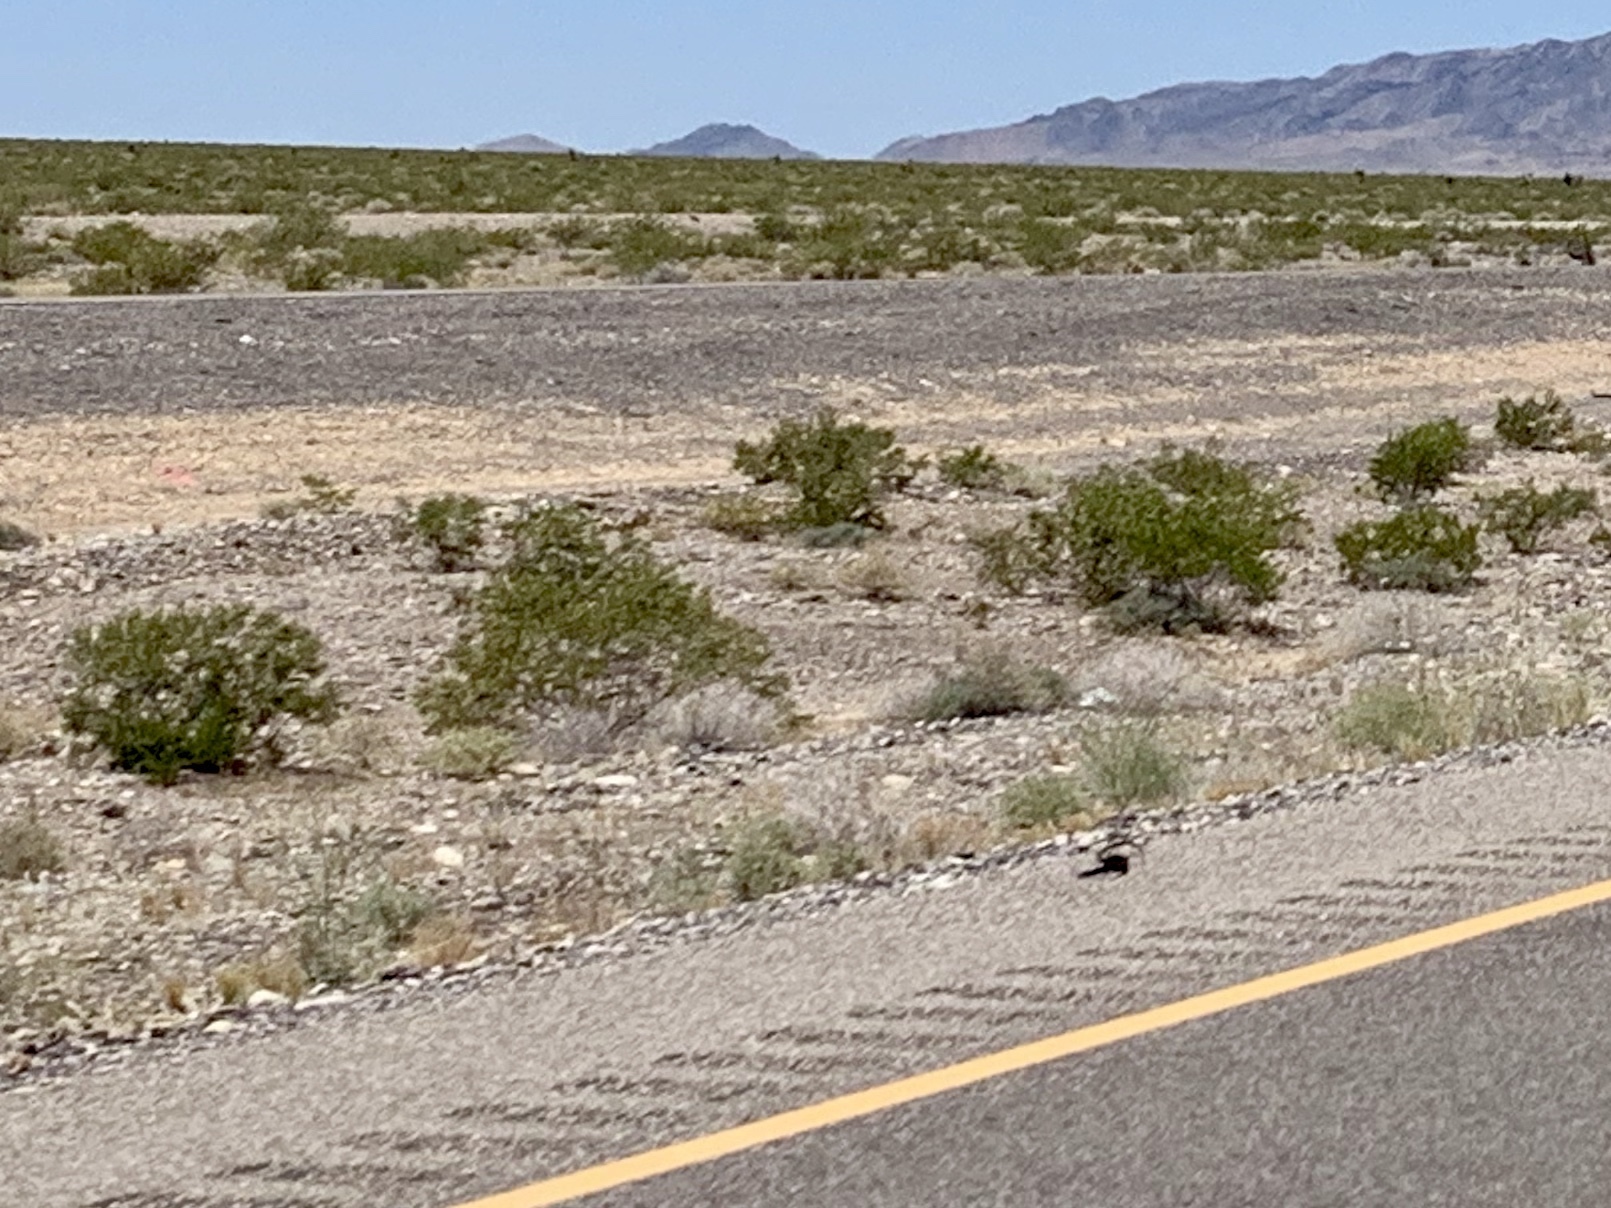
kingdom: Plantae
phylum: Tracheophyta
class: Magnoliopsida
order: Zygophyllales
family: Zygophyllaceae
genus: Larrea
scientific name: Larrea tridentata
